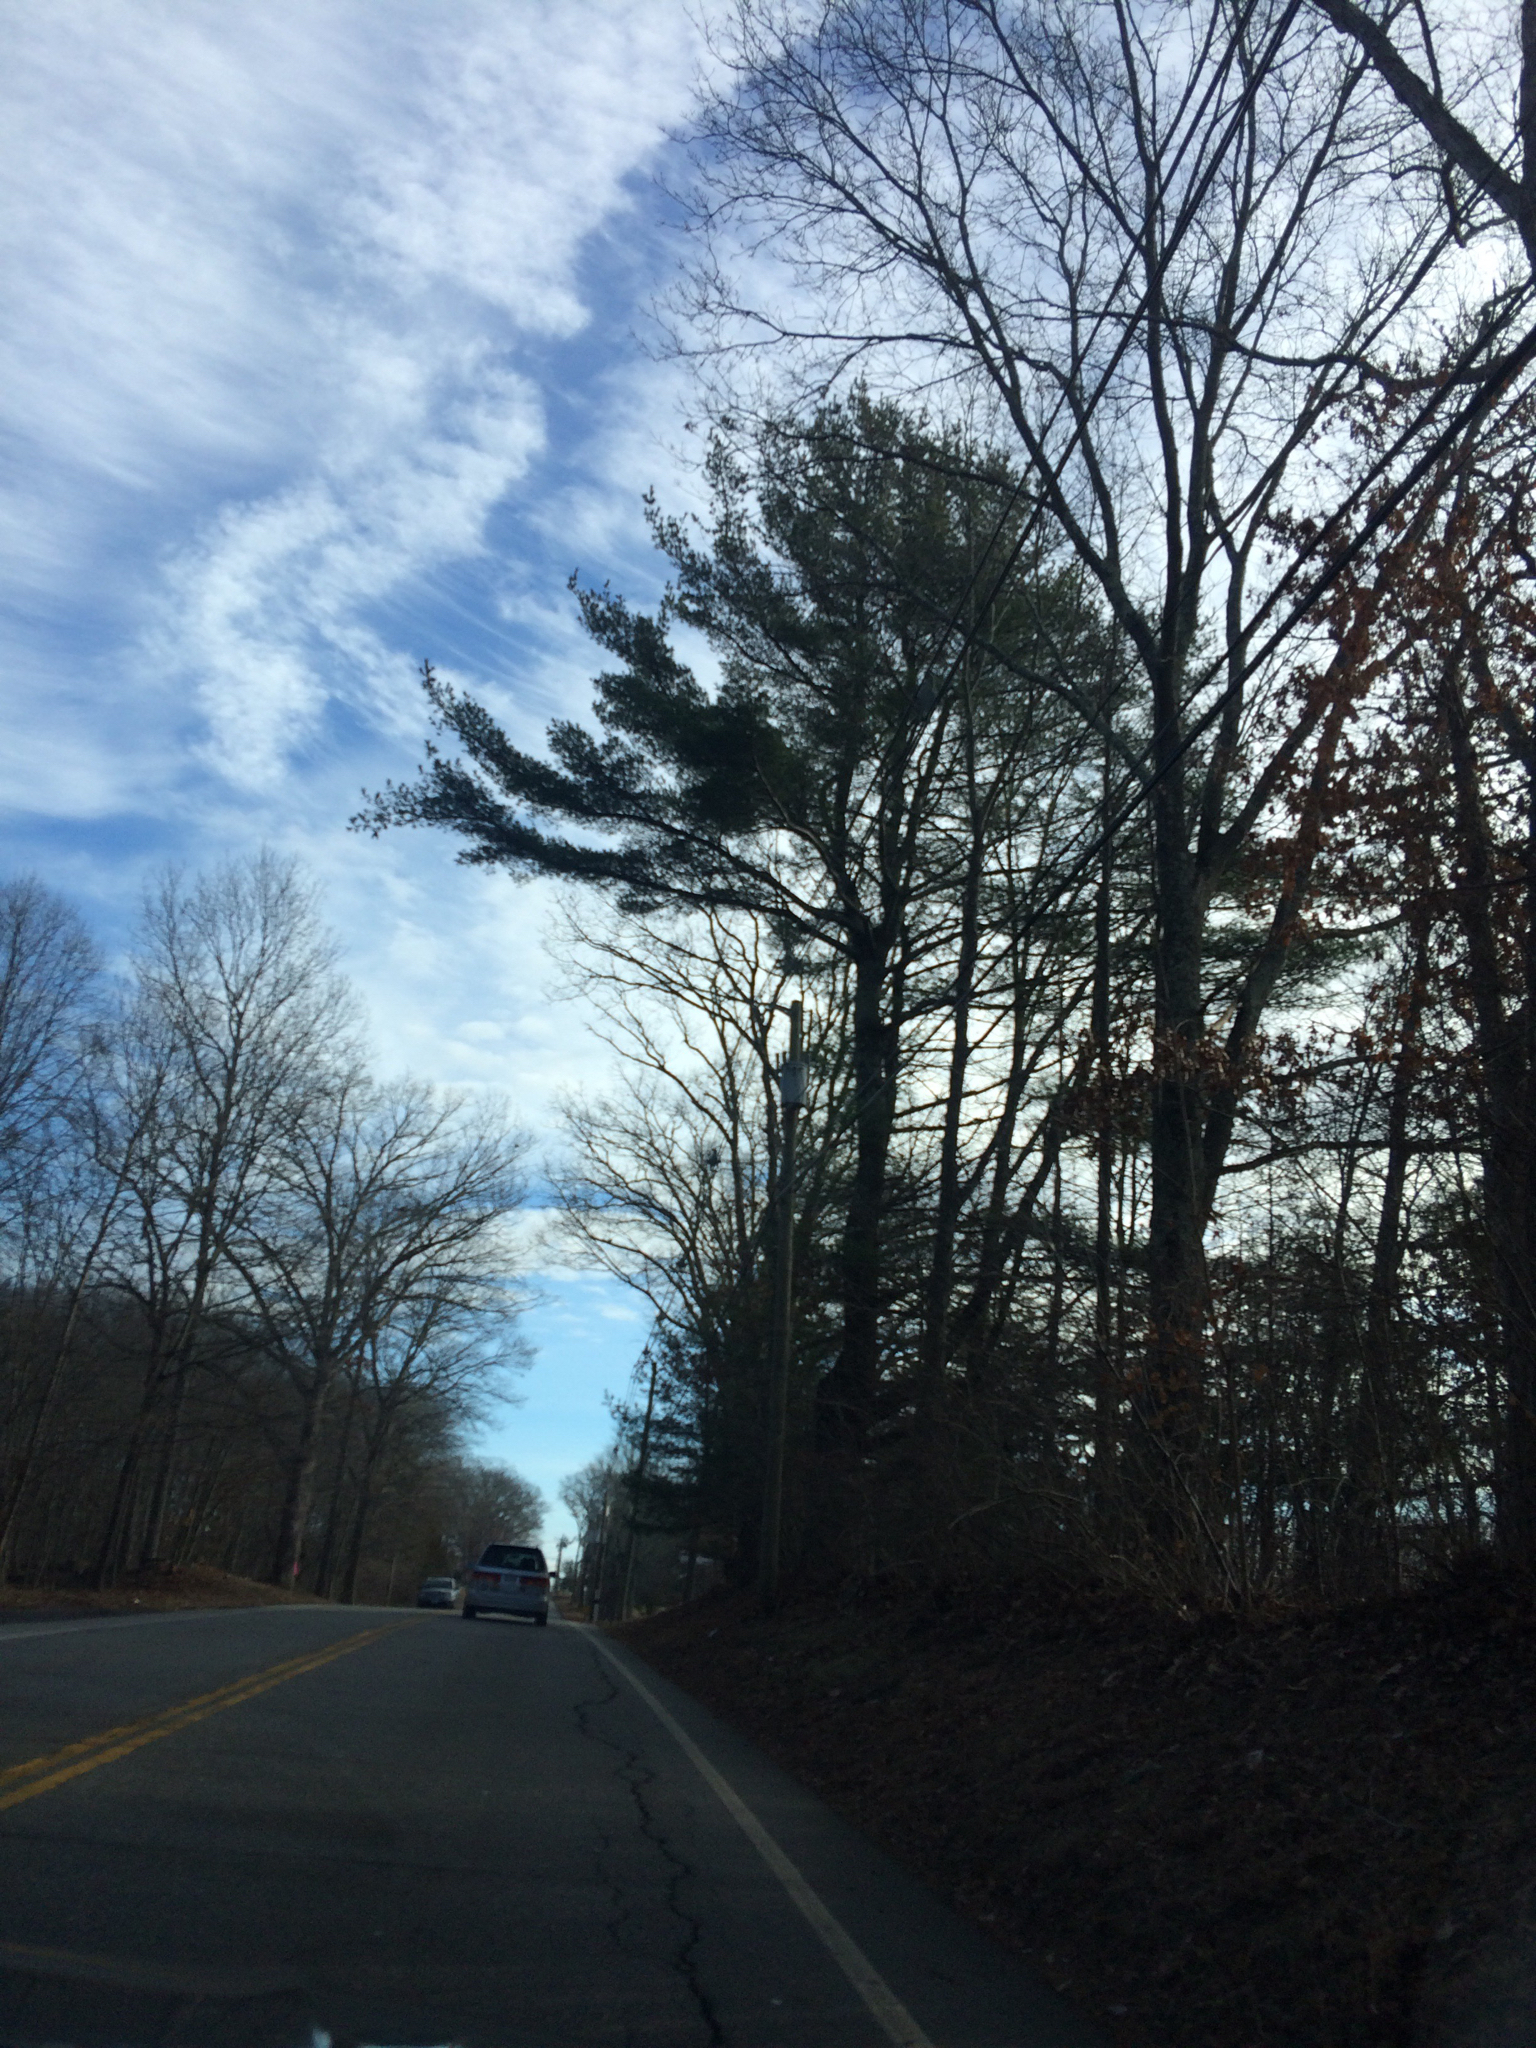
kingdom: Plantae
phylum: Tracheophyta
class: Pinopsida
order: Pinales
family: Pinaceae
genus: Pinus
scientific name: Pinus strobus
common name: Weymouth pine
